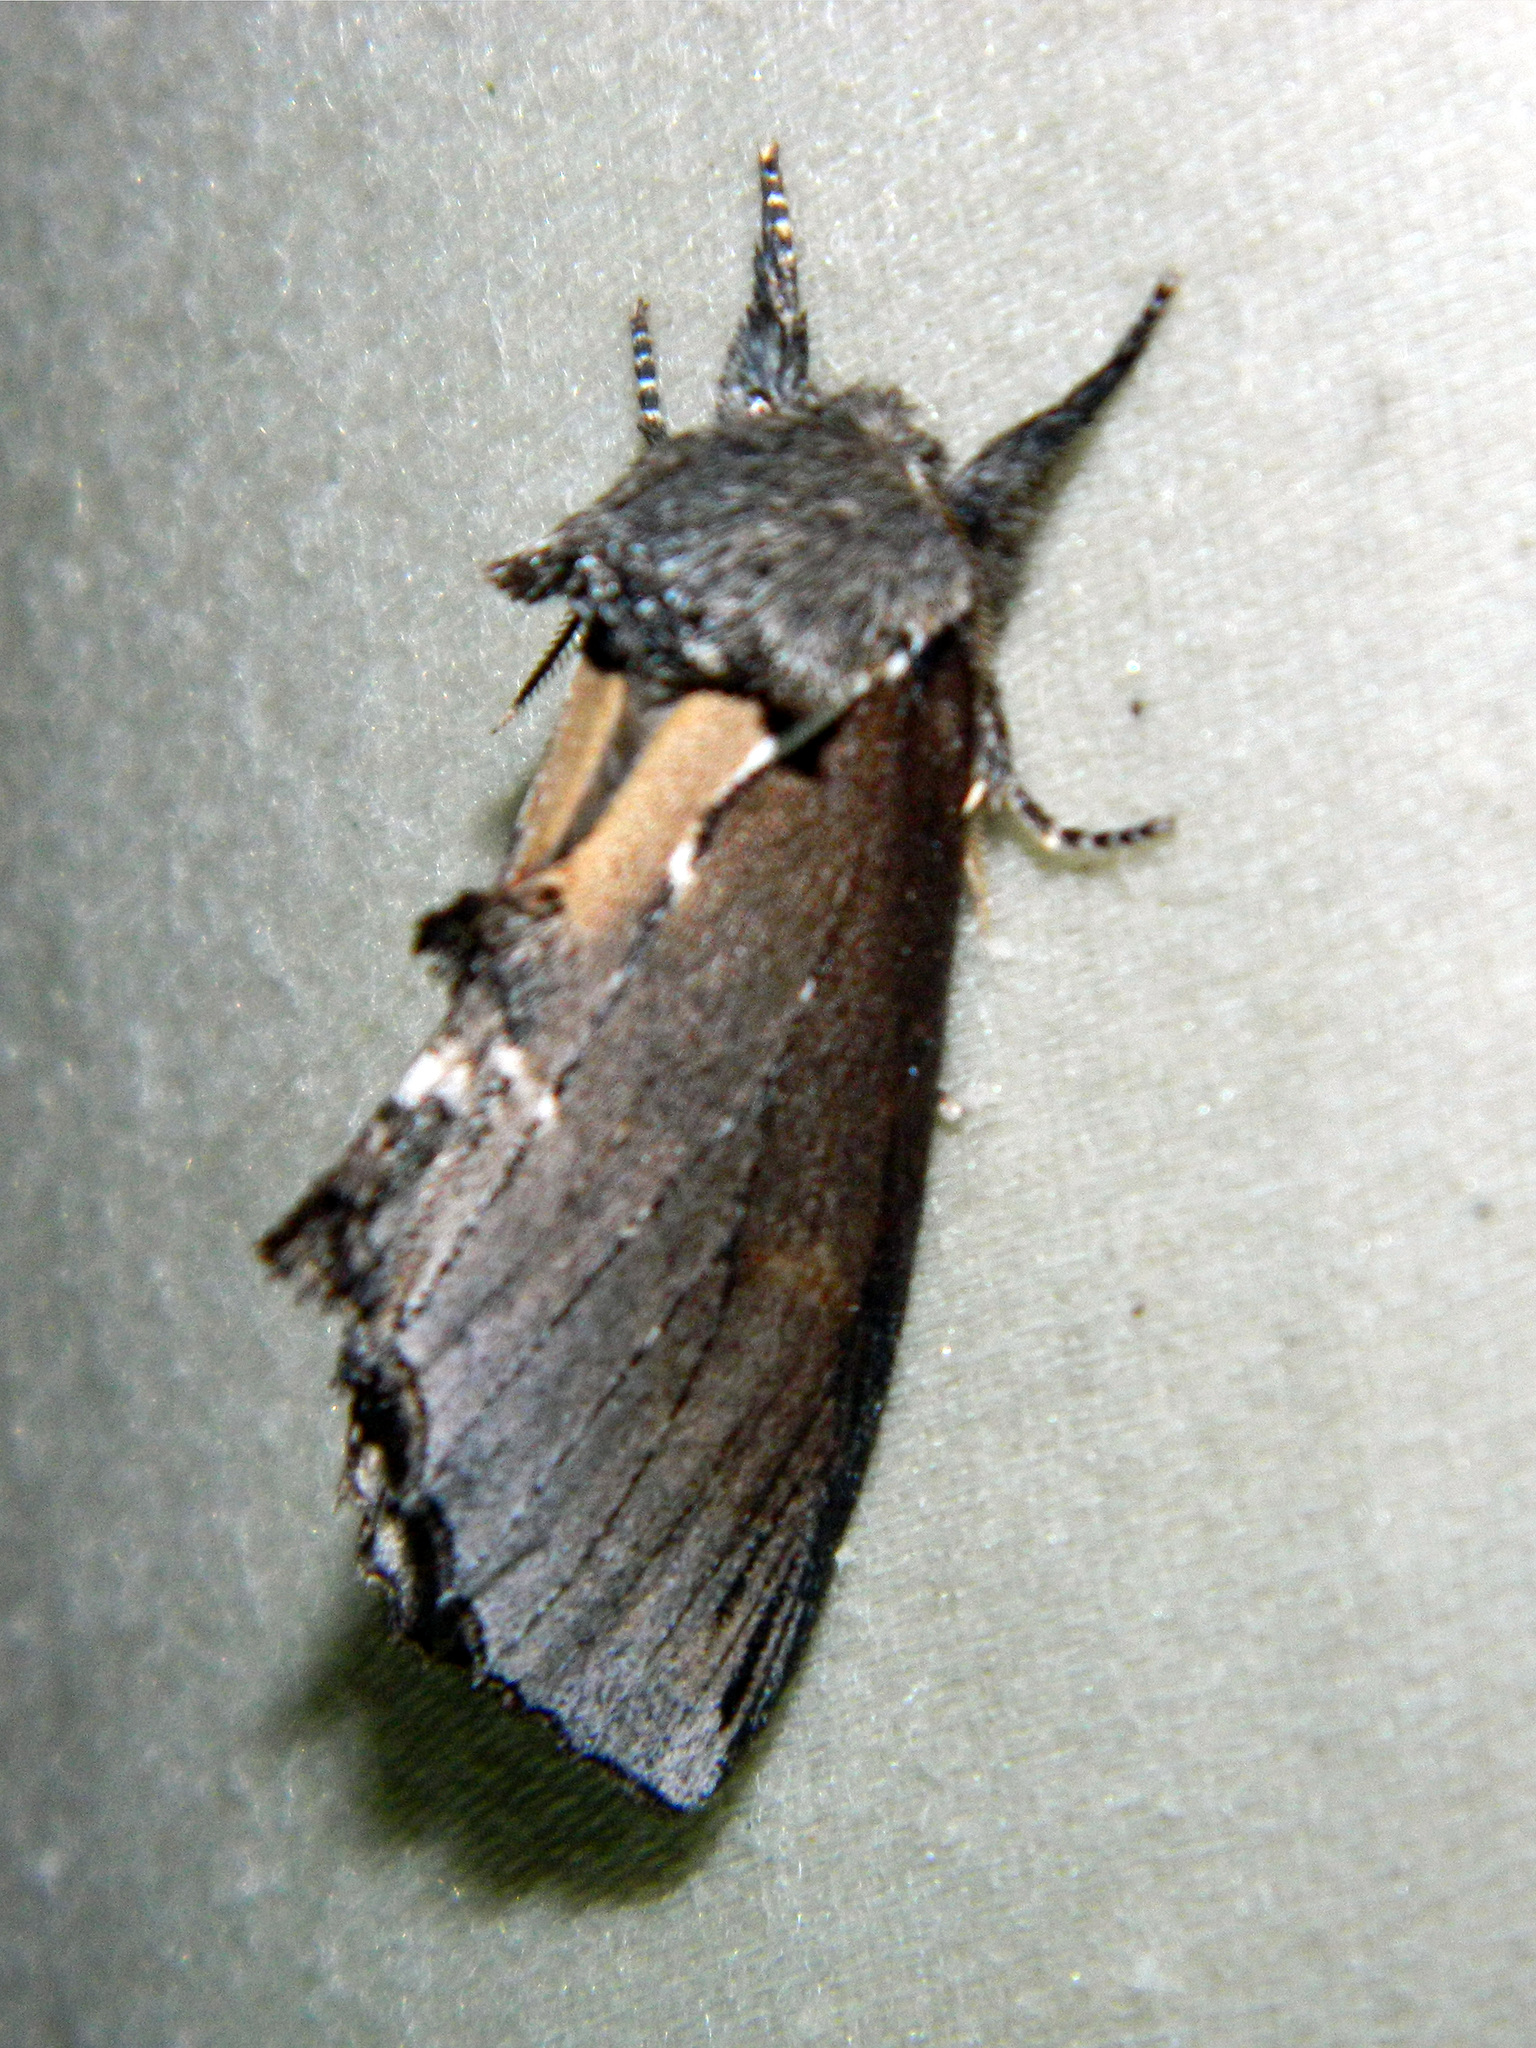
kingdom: Animalia
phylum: Arthropoda
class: Insecta
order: Lepidoptera
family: Notodontidae
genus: Pheosidea
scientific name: Pheosidea elegans
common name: Elegant prominent
